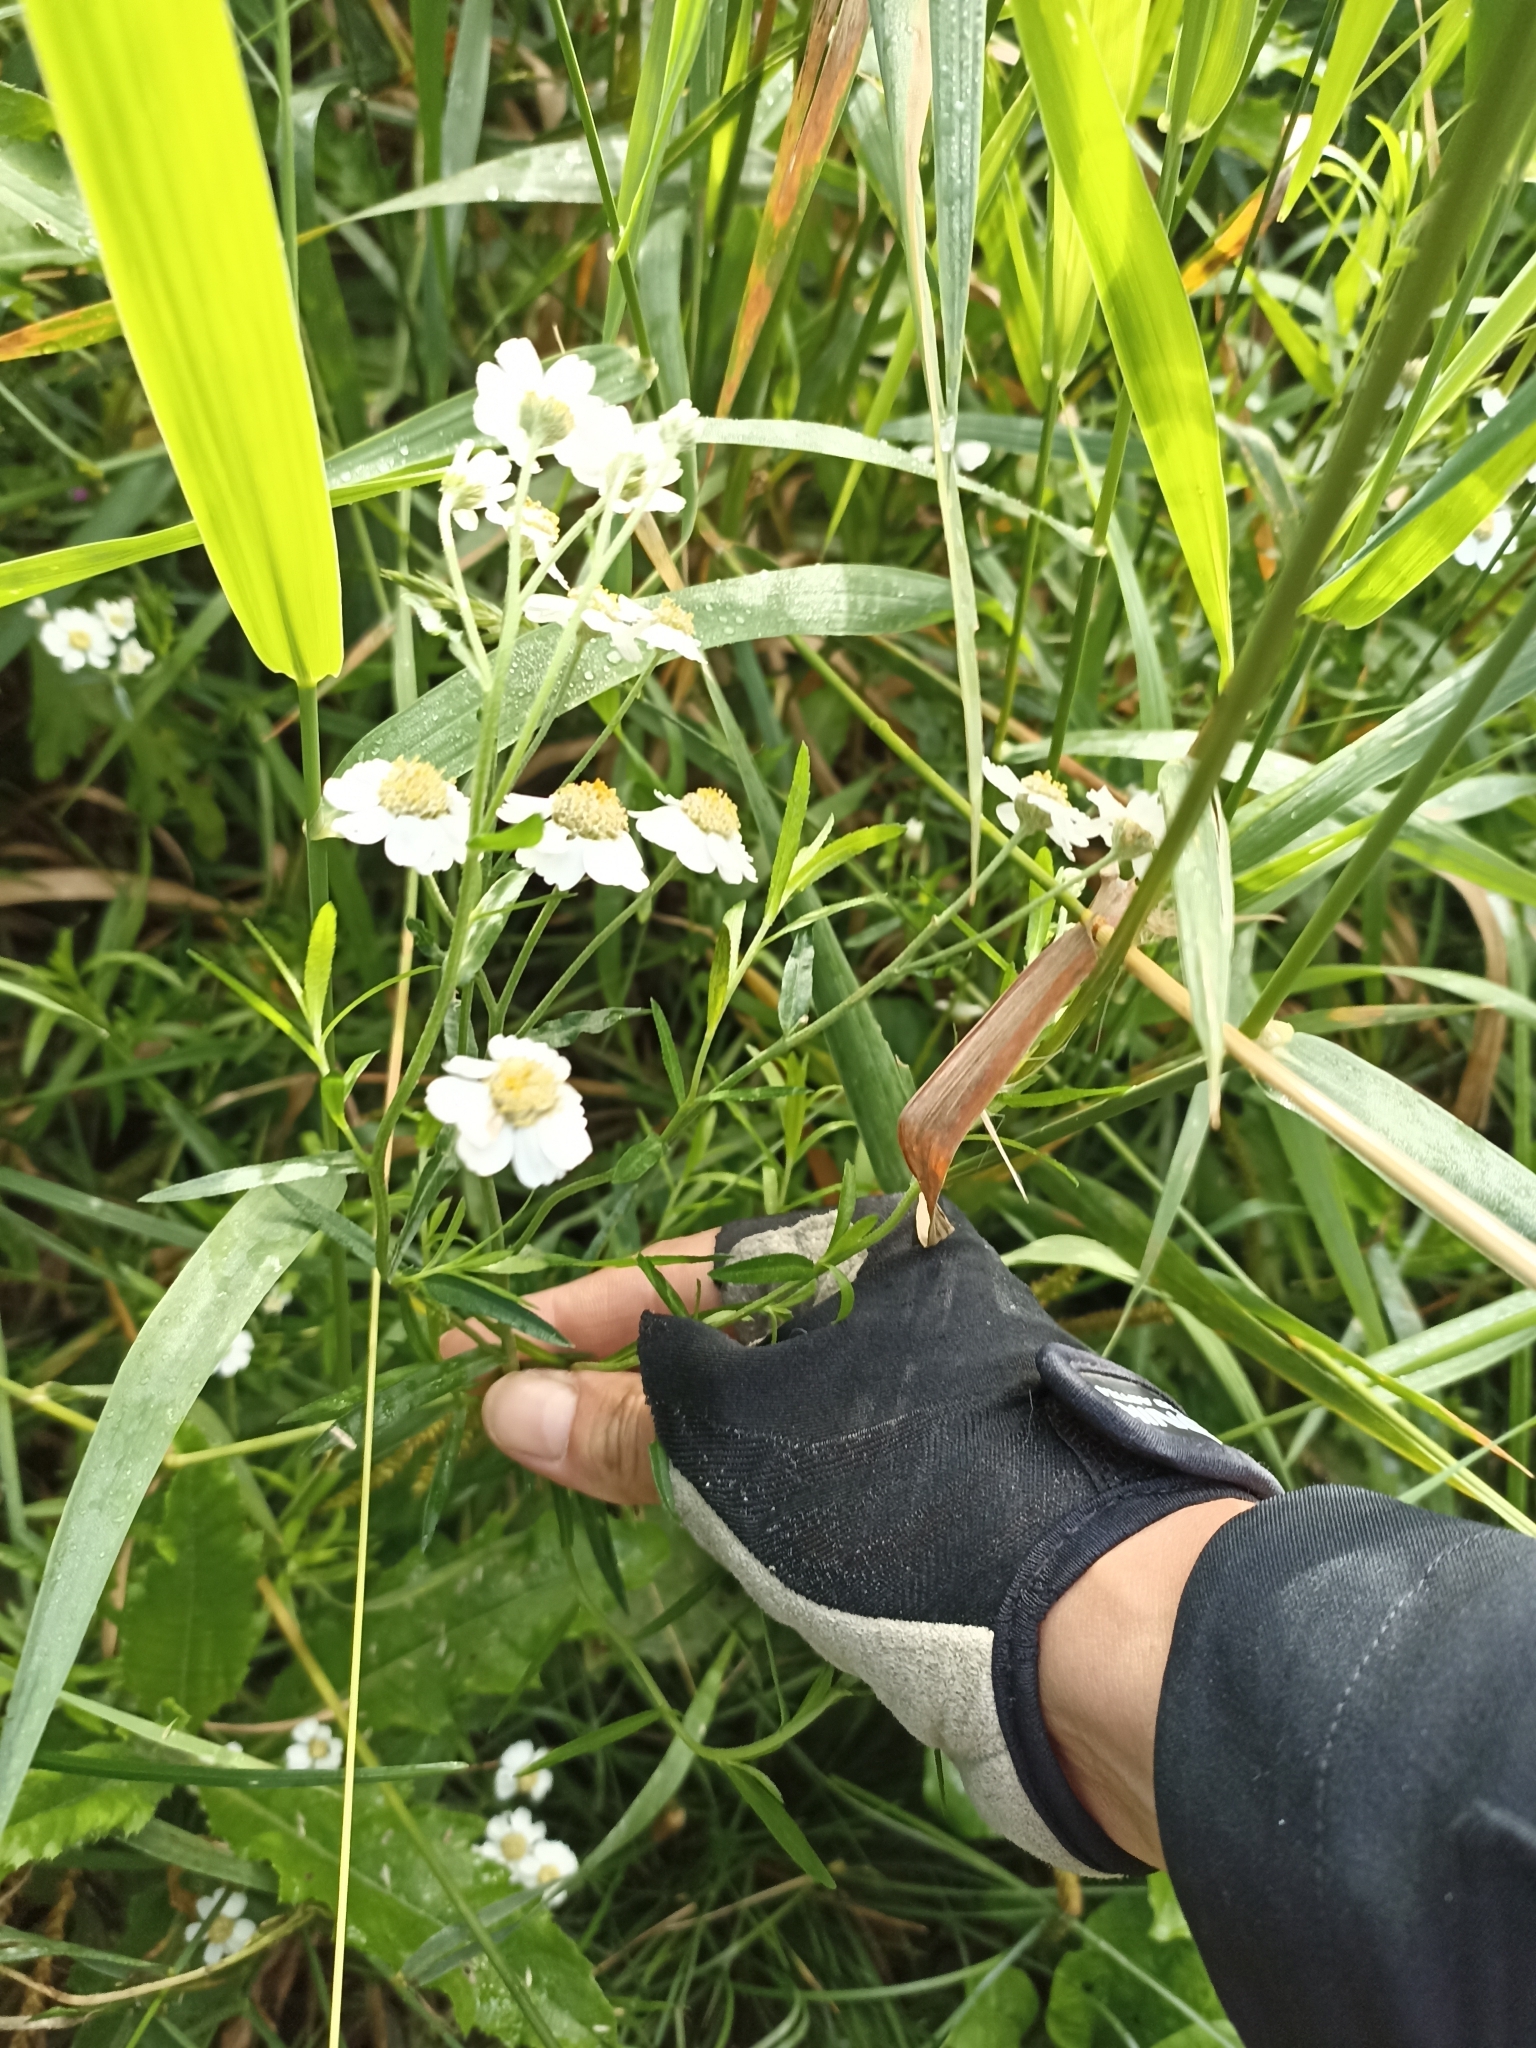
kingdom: Plantae
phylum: Tracheophyta
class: Magnoliopsida
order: Asterales
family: Asteraceae
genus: Achillea
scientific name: Achillea ptarmica
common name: Sneezeweed
